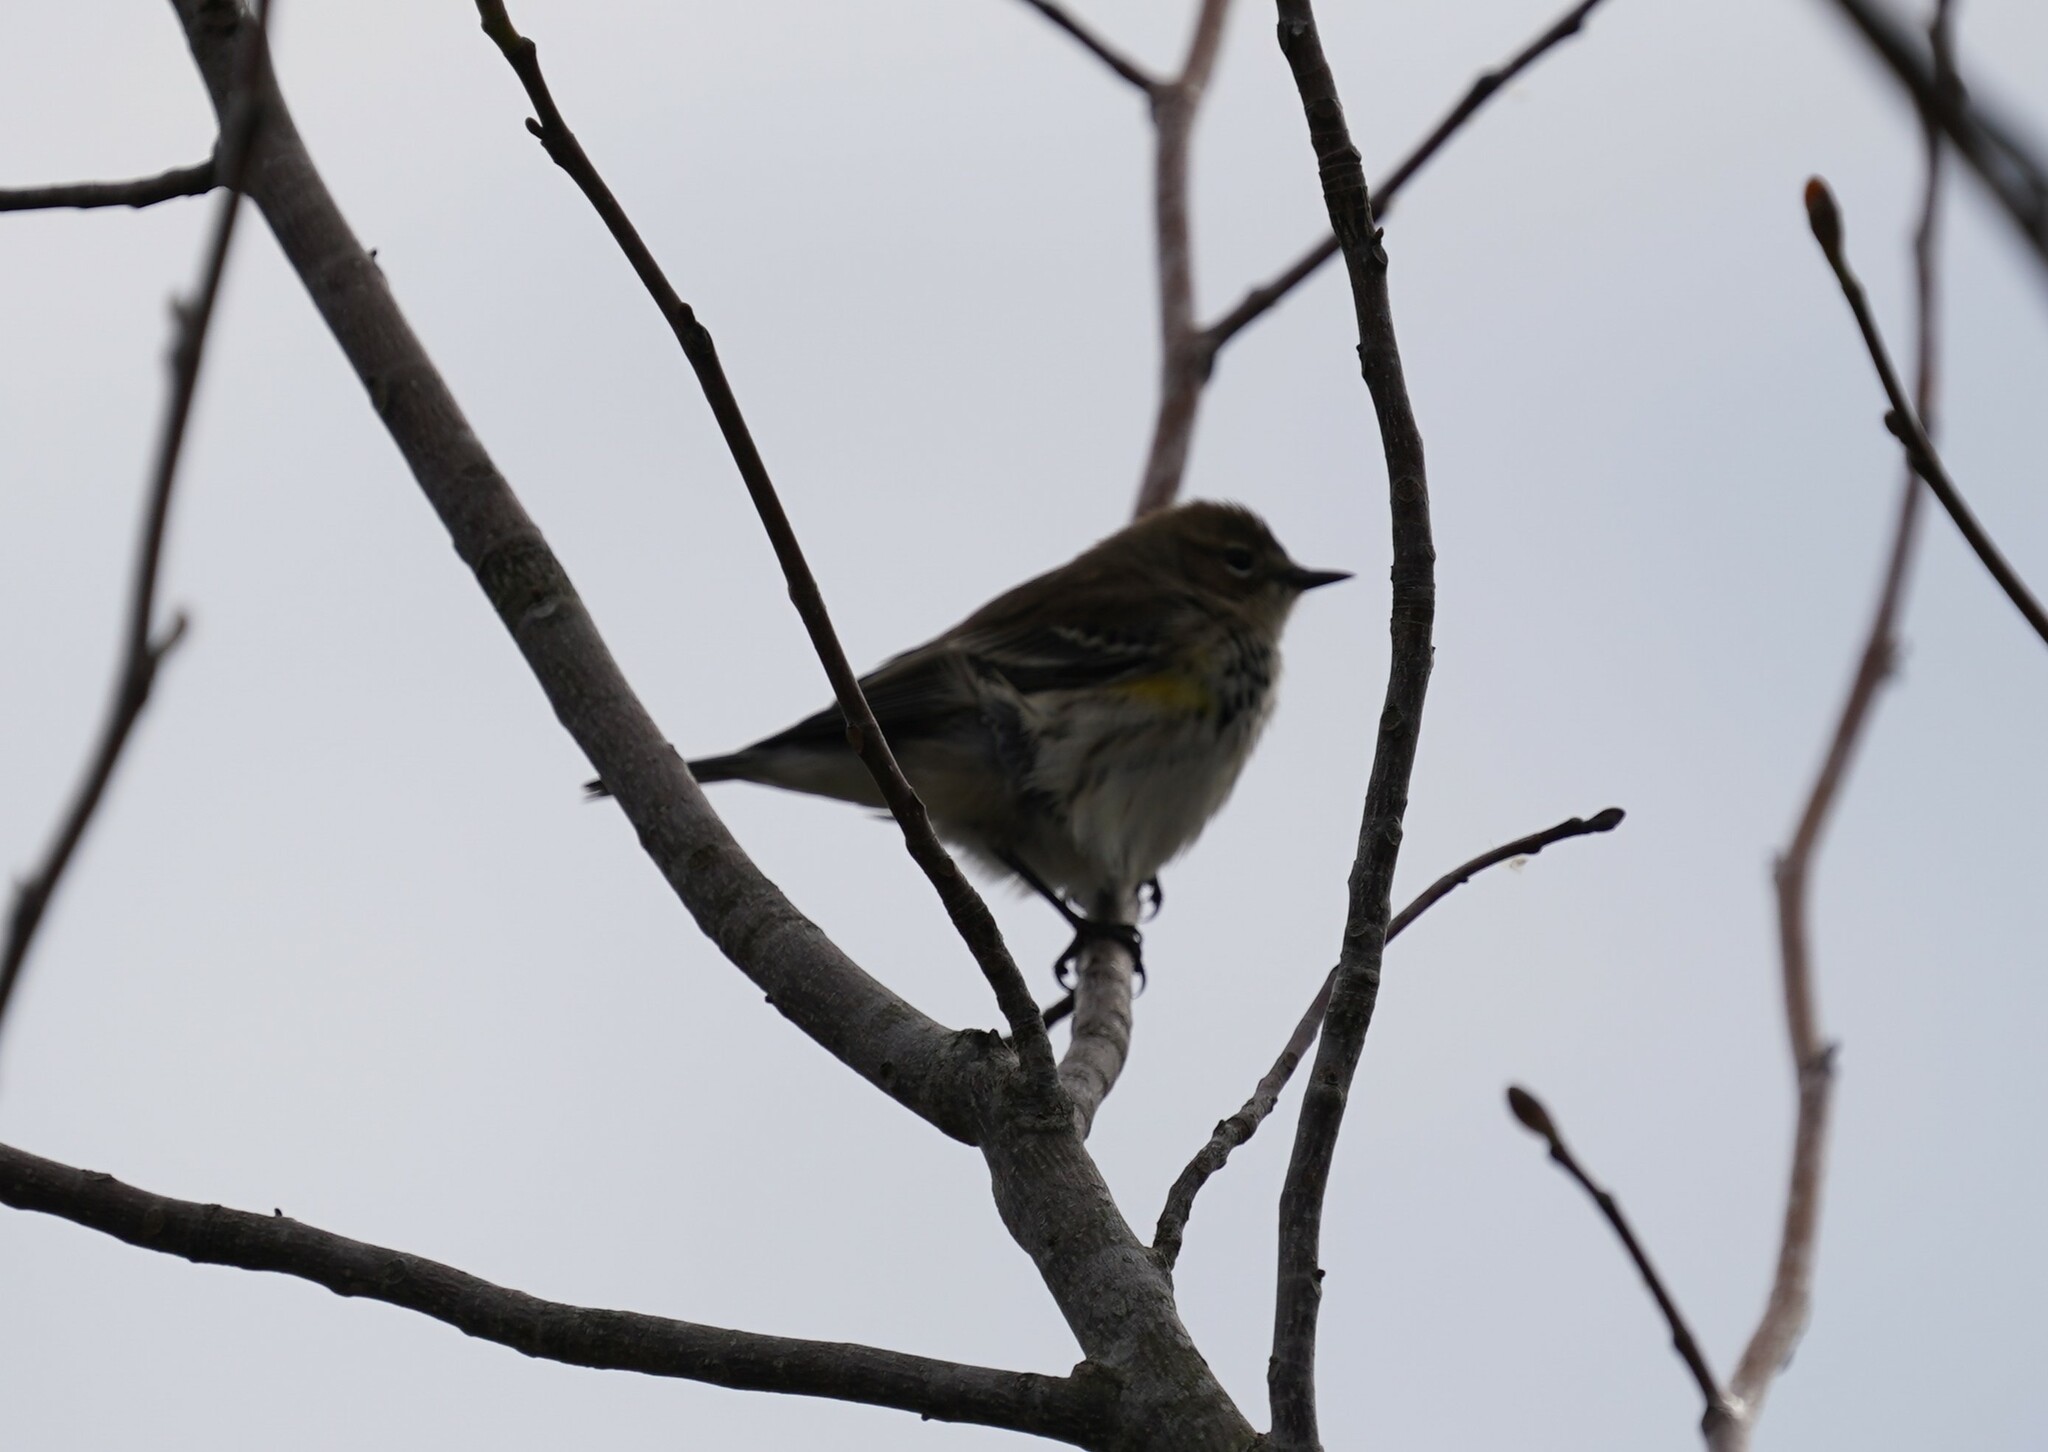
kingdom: Animalia
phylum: Chordata
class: Aves
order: Passeriformes
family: Parulidae
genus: Setophaga
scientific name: Setophaga coronata
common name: Myrtle warbler
